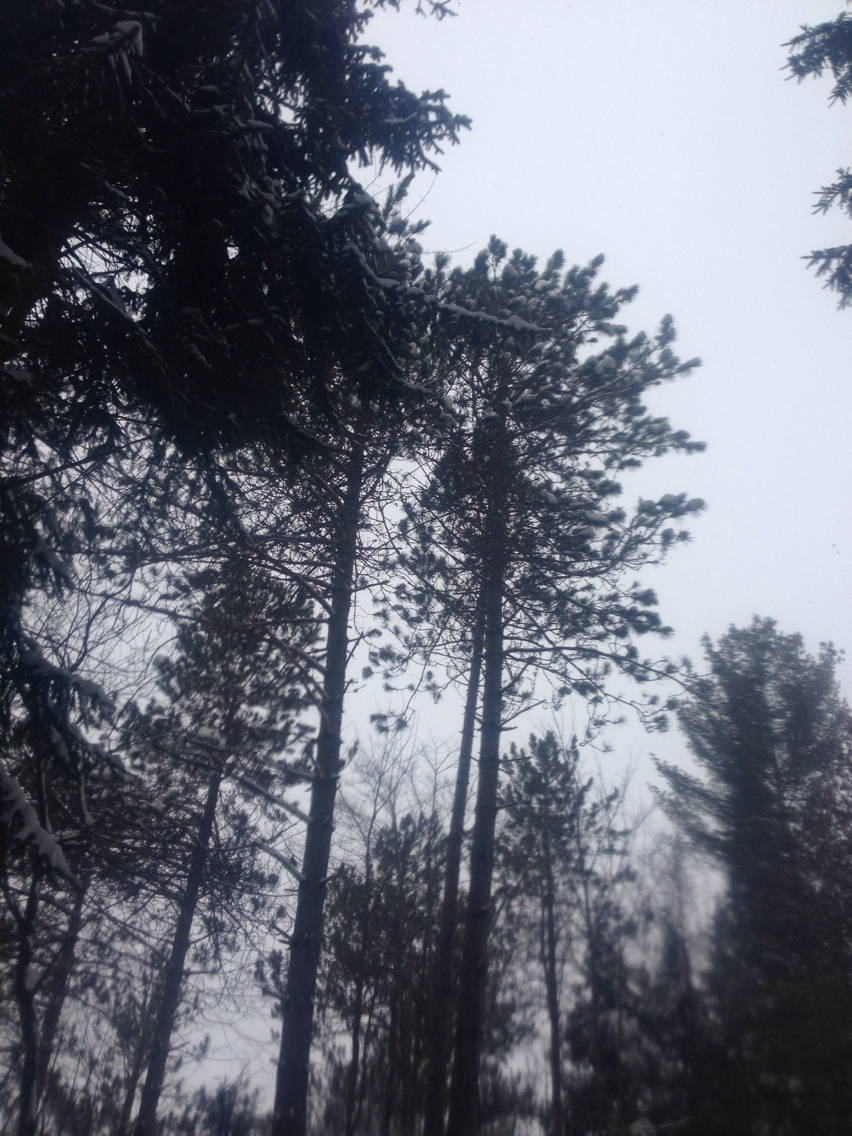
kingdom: Plantae
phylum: Tracheophyta
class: Pinopsida
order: Pinales
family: Pinaceae
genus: Pinus
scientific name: Pinus resinosa
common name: Norway pine
